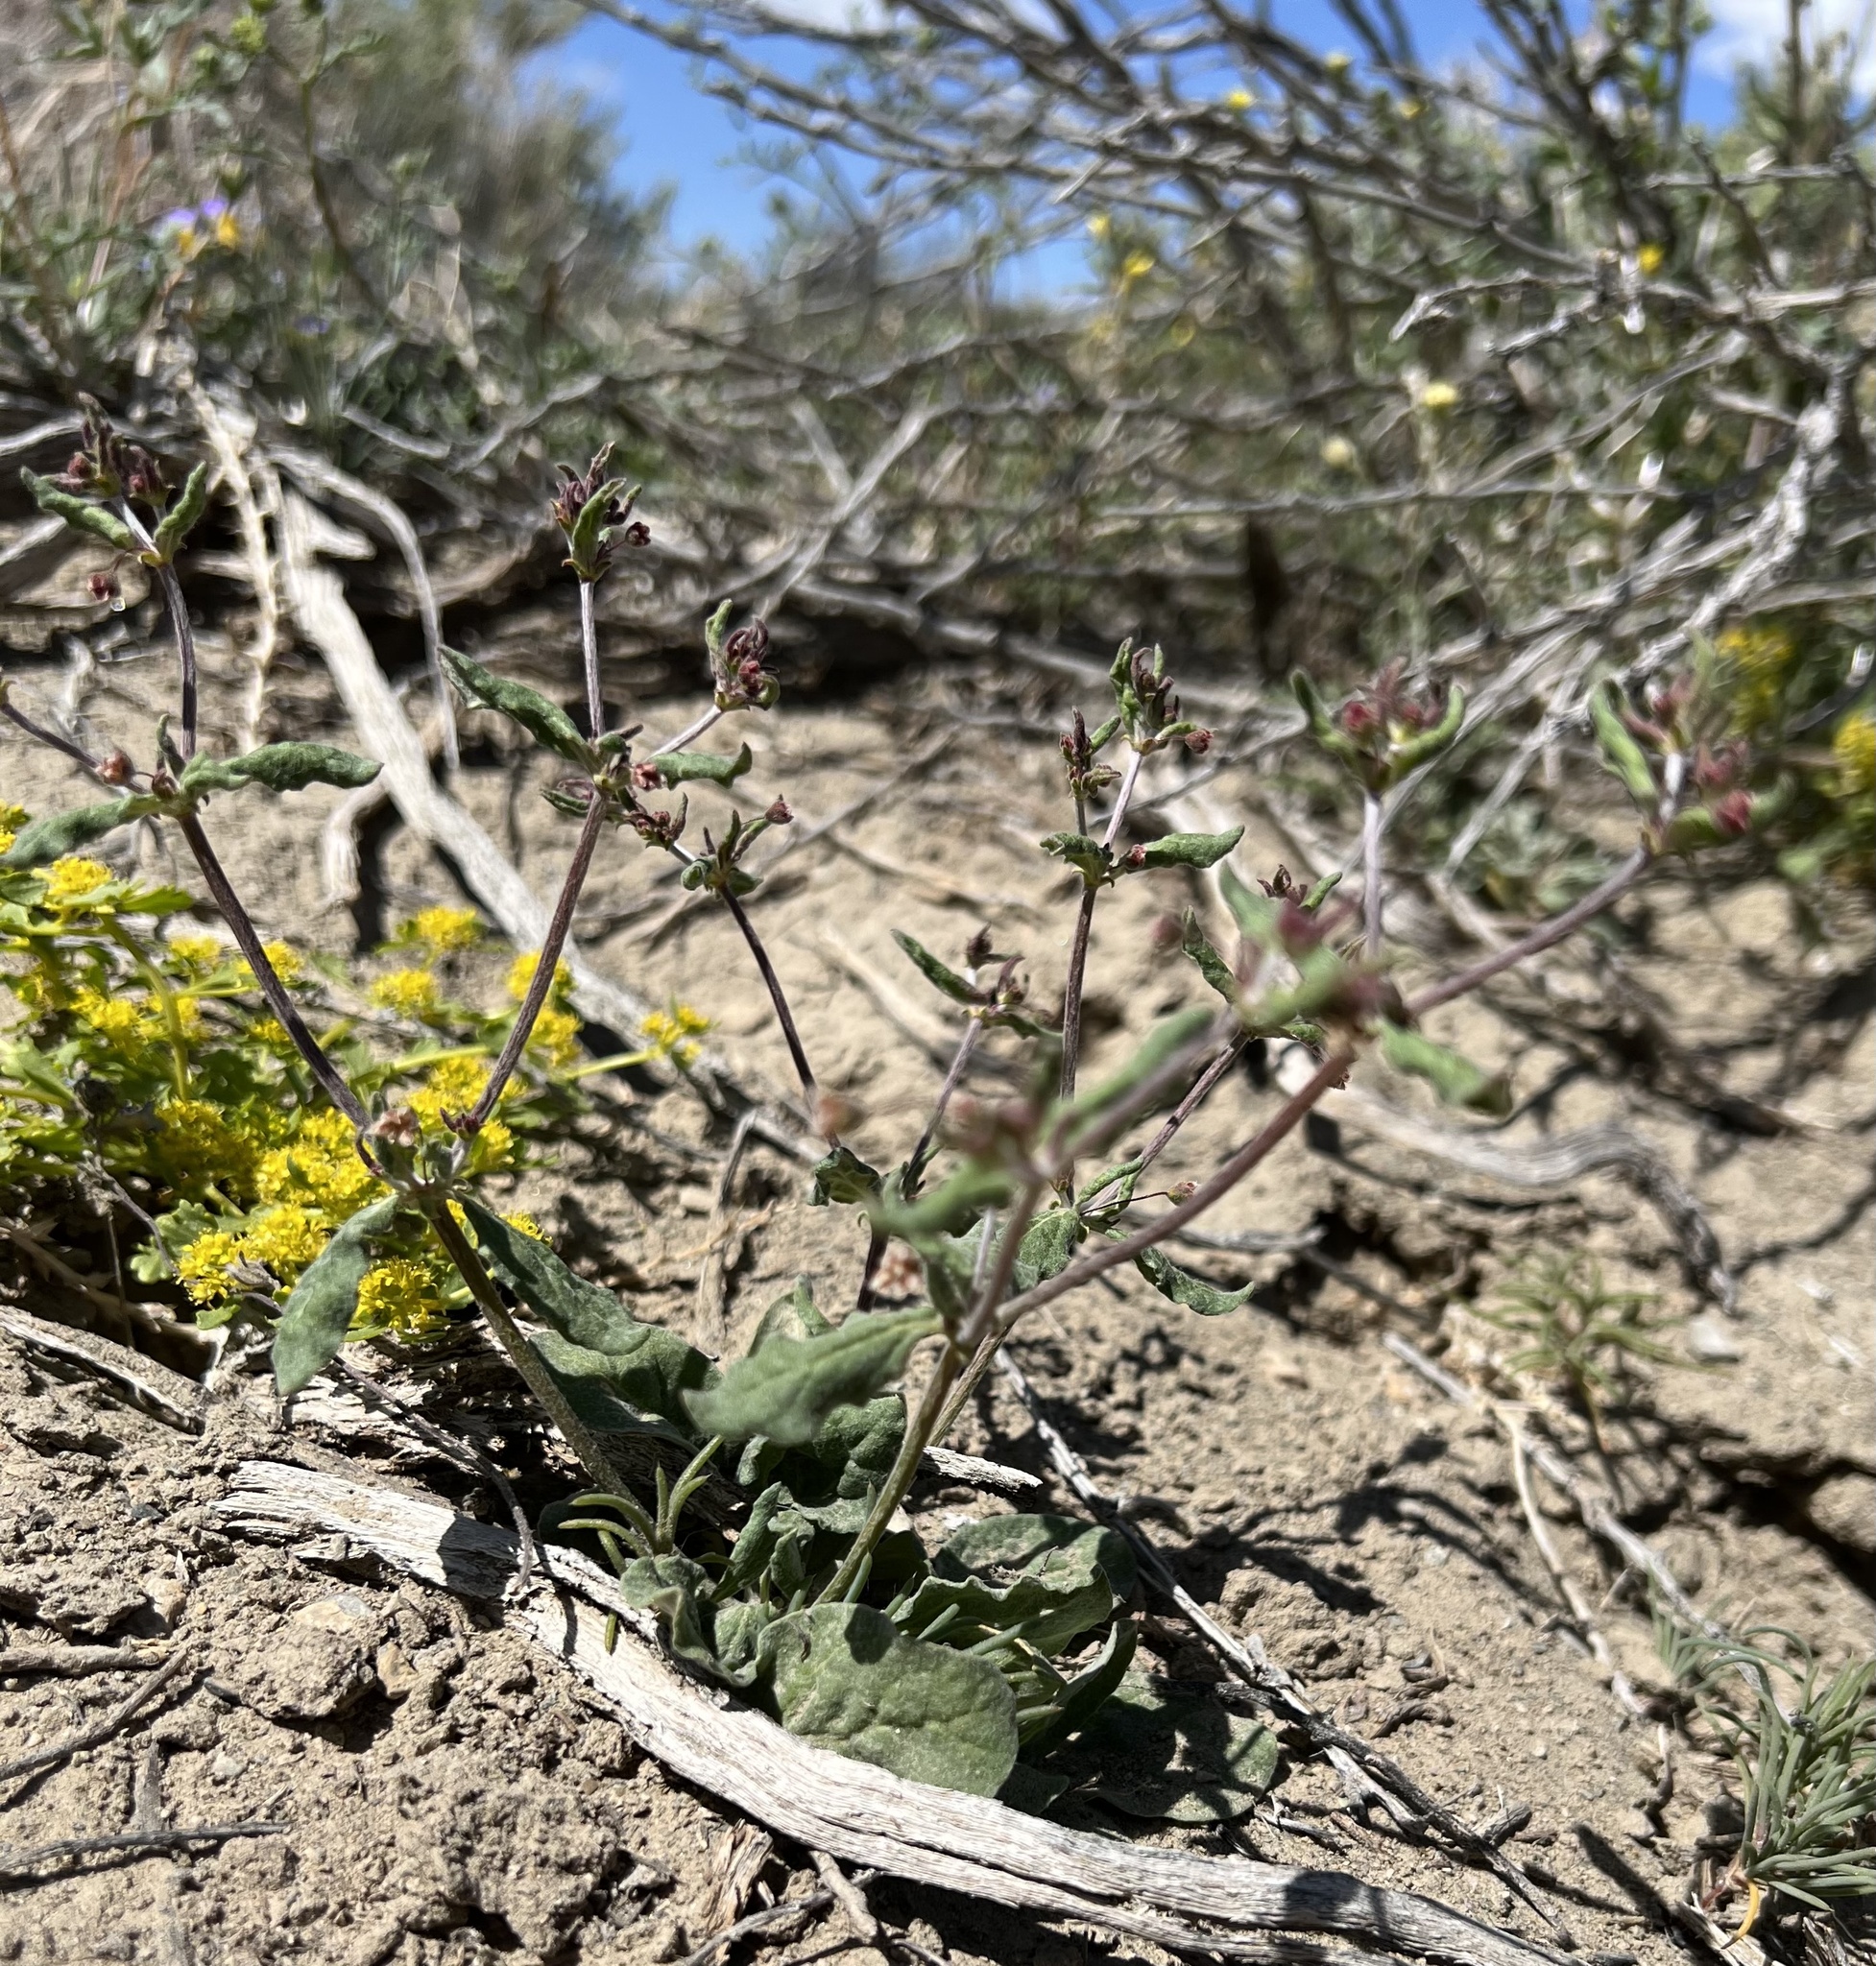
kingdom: Plantae
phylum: Tracheophyta
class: Magnoliopsida
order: Caryophyllales
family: Polygonaceae
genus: Eriogonum
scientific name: Eriogonum maculatum
